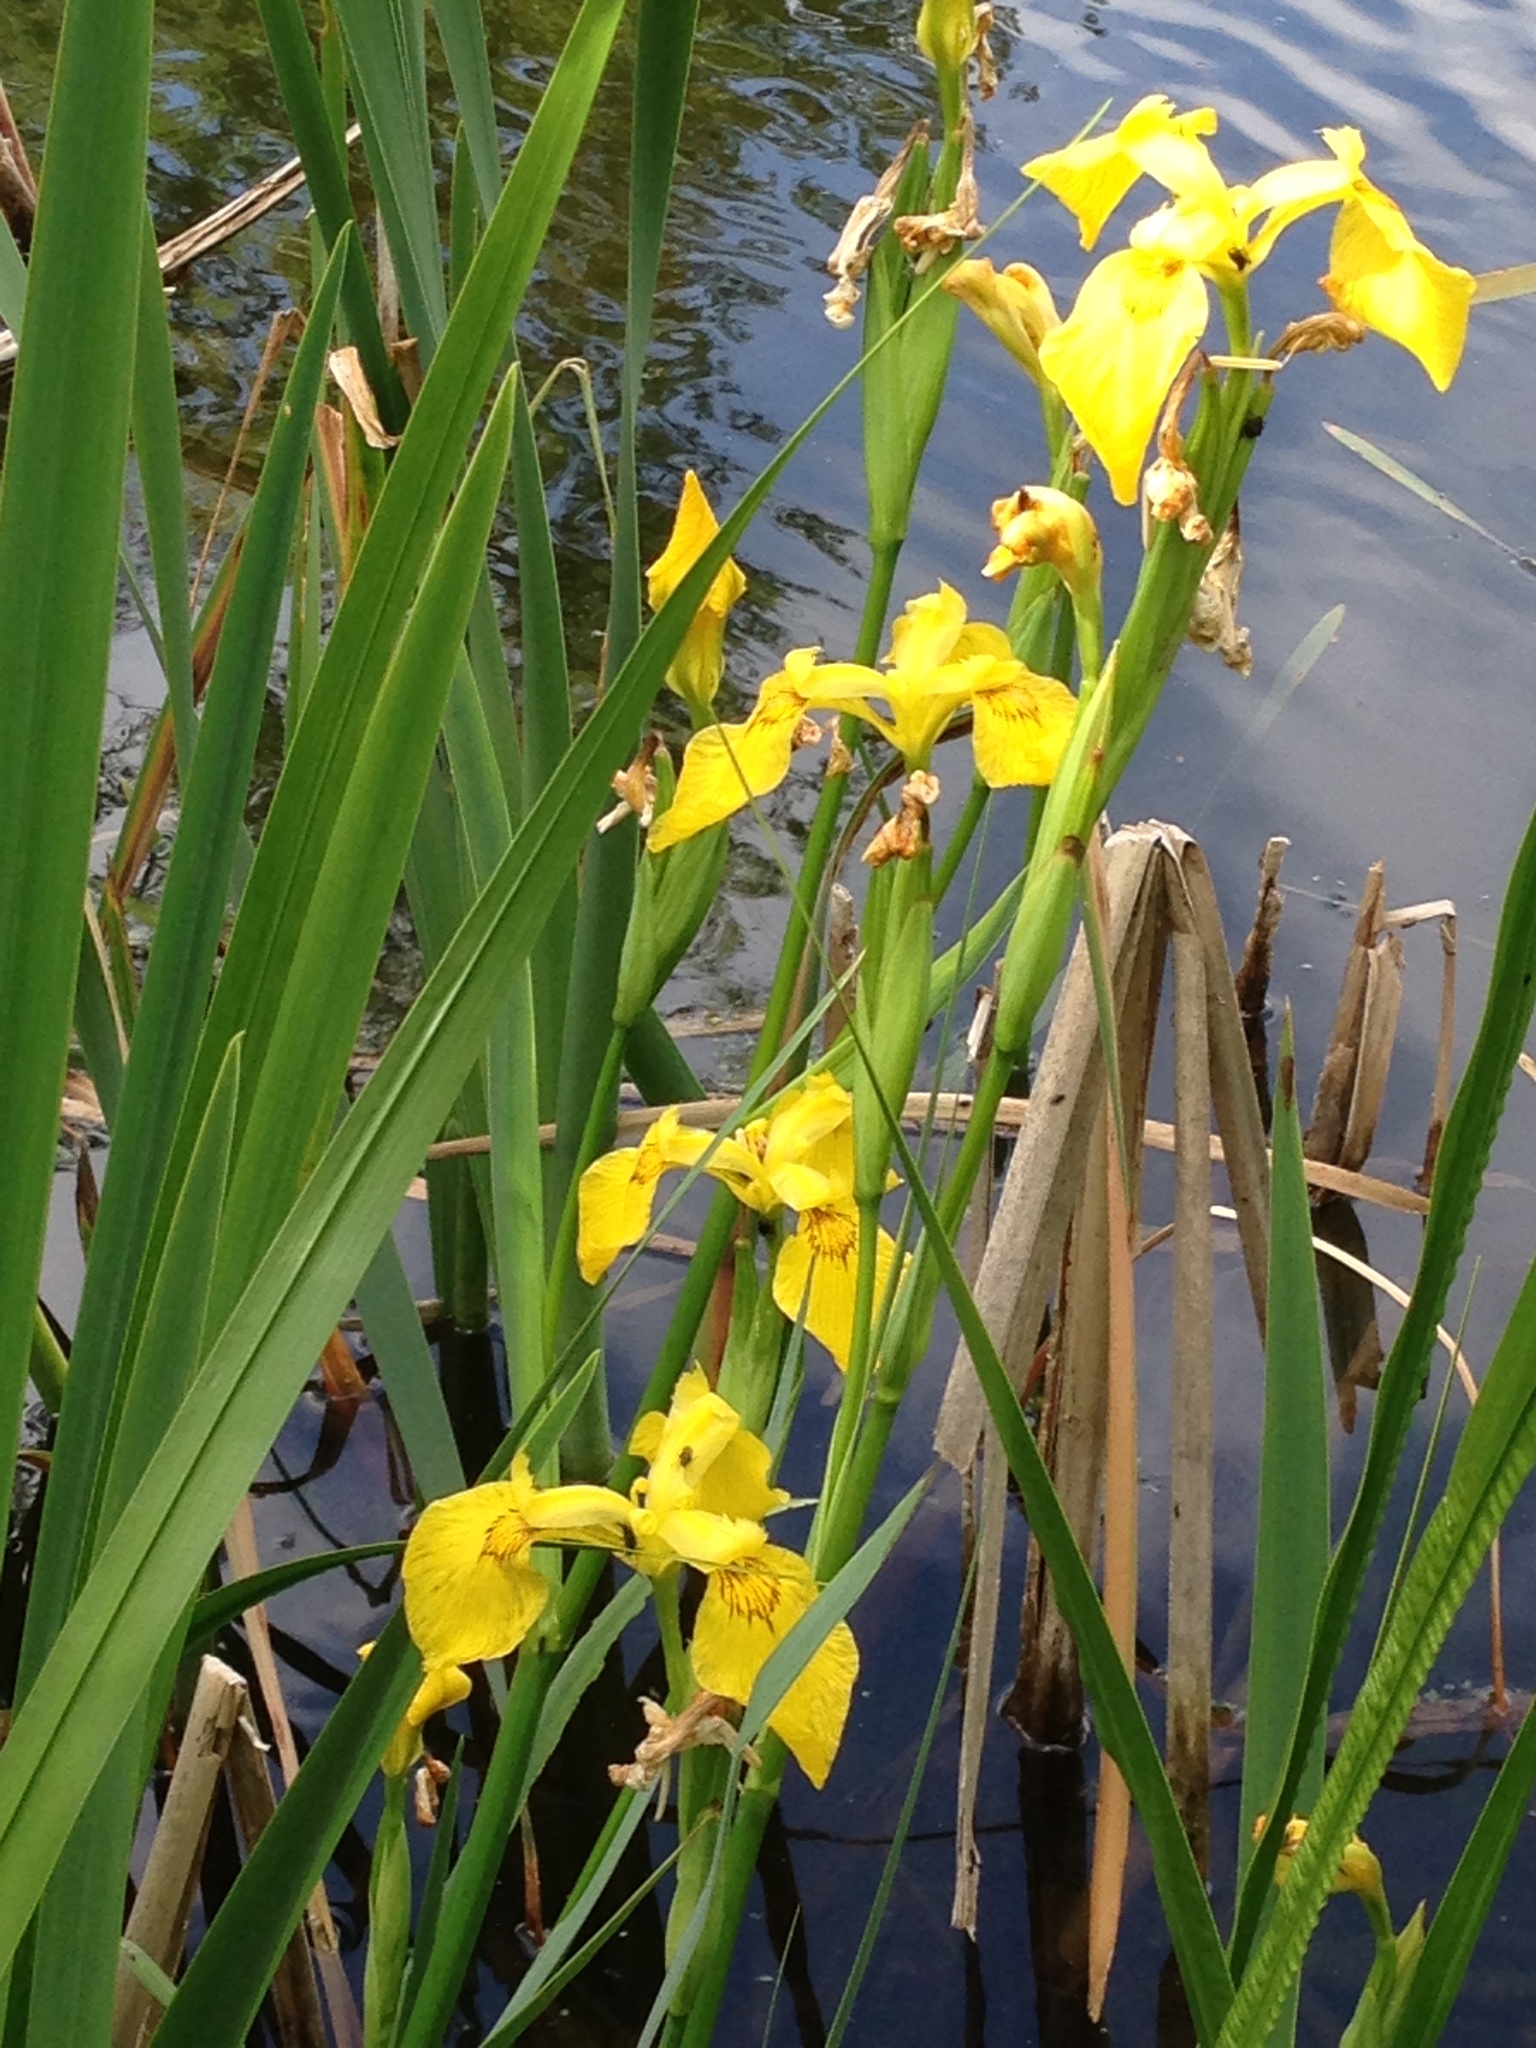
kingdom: Plantae
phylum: Tracheophyta
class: Liliopsida
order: Asparagales
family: Iridaceae
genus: Iris
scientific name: Iris pseudacorus
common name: Yellow flag
